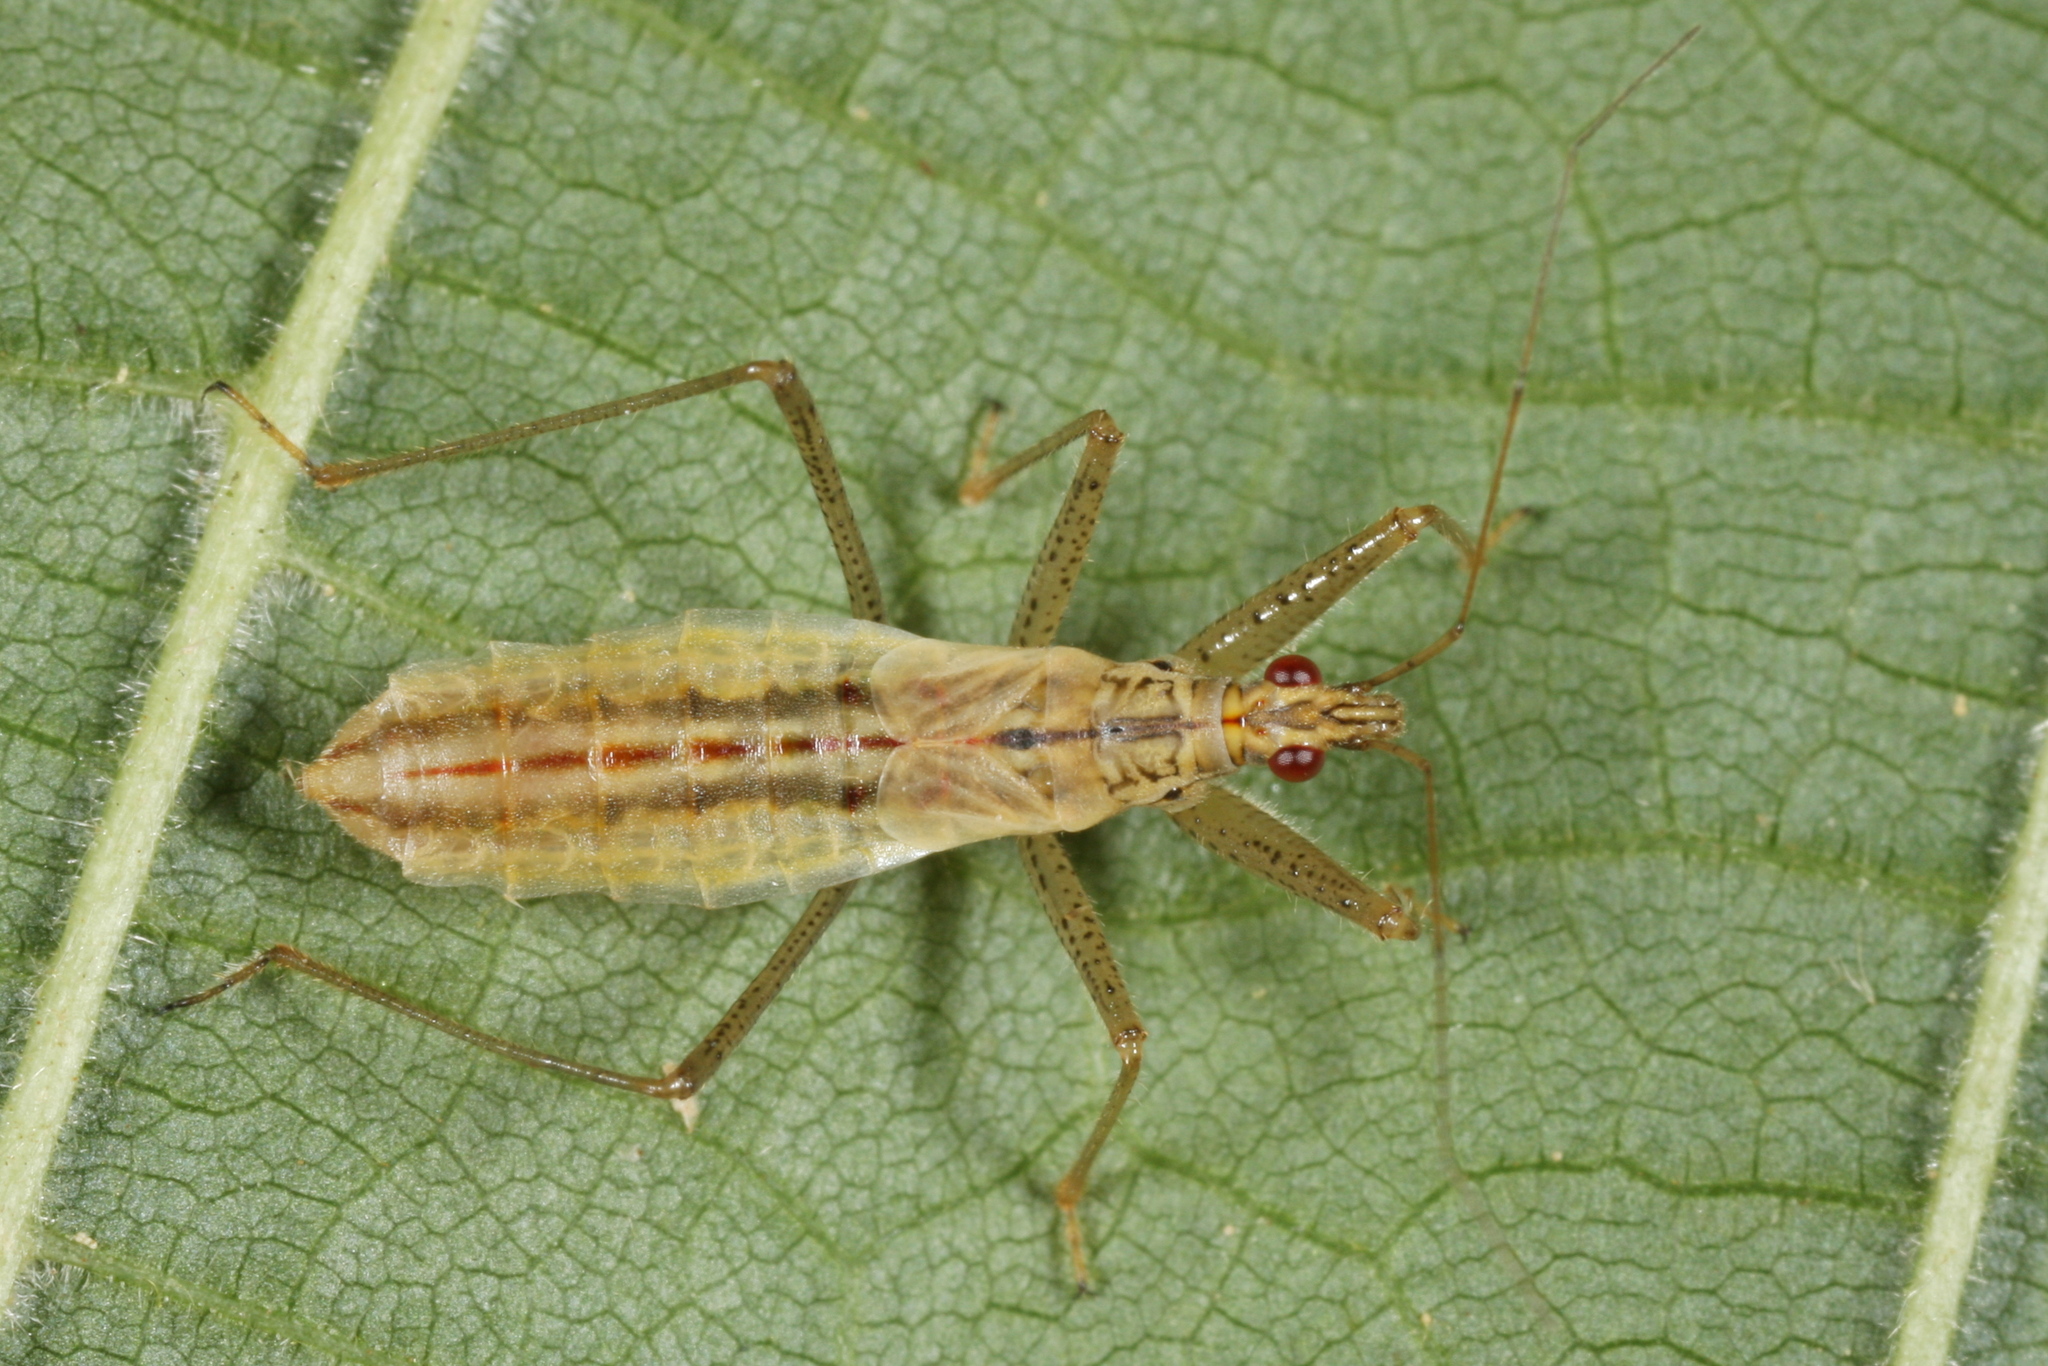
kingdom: Animalia
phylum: Arthropoda
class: Insecta
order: Hemiptera
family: Nabidae
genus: Nabis
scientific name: Nabis limbatus
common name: Marsh damselbug
